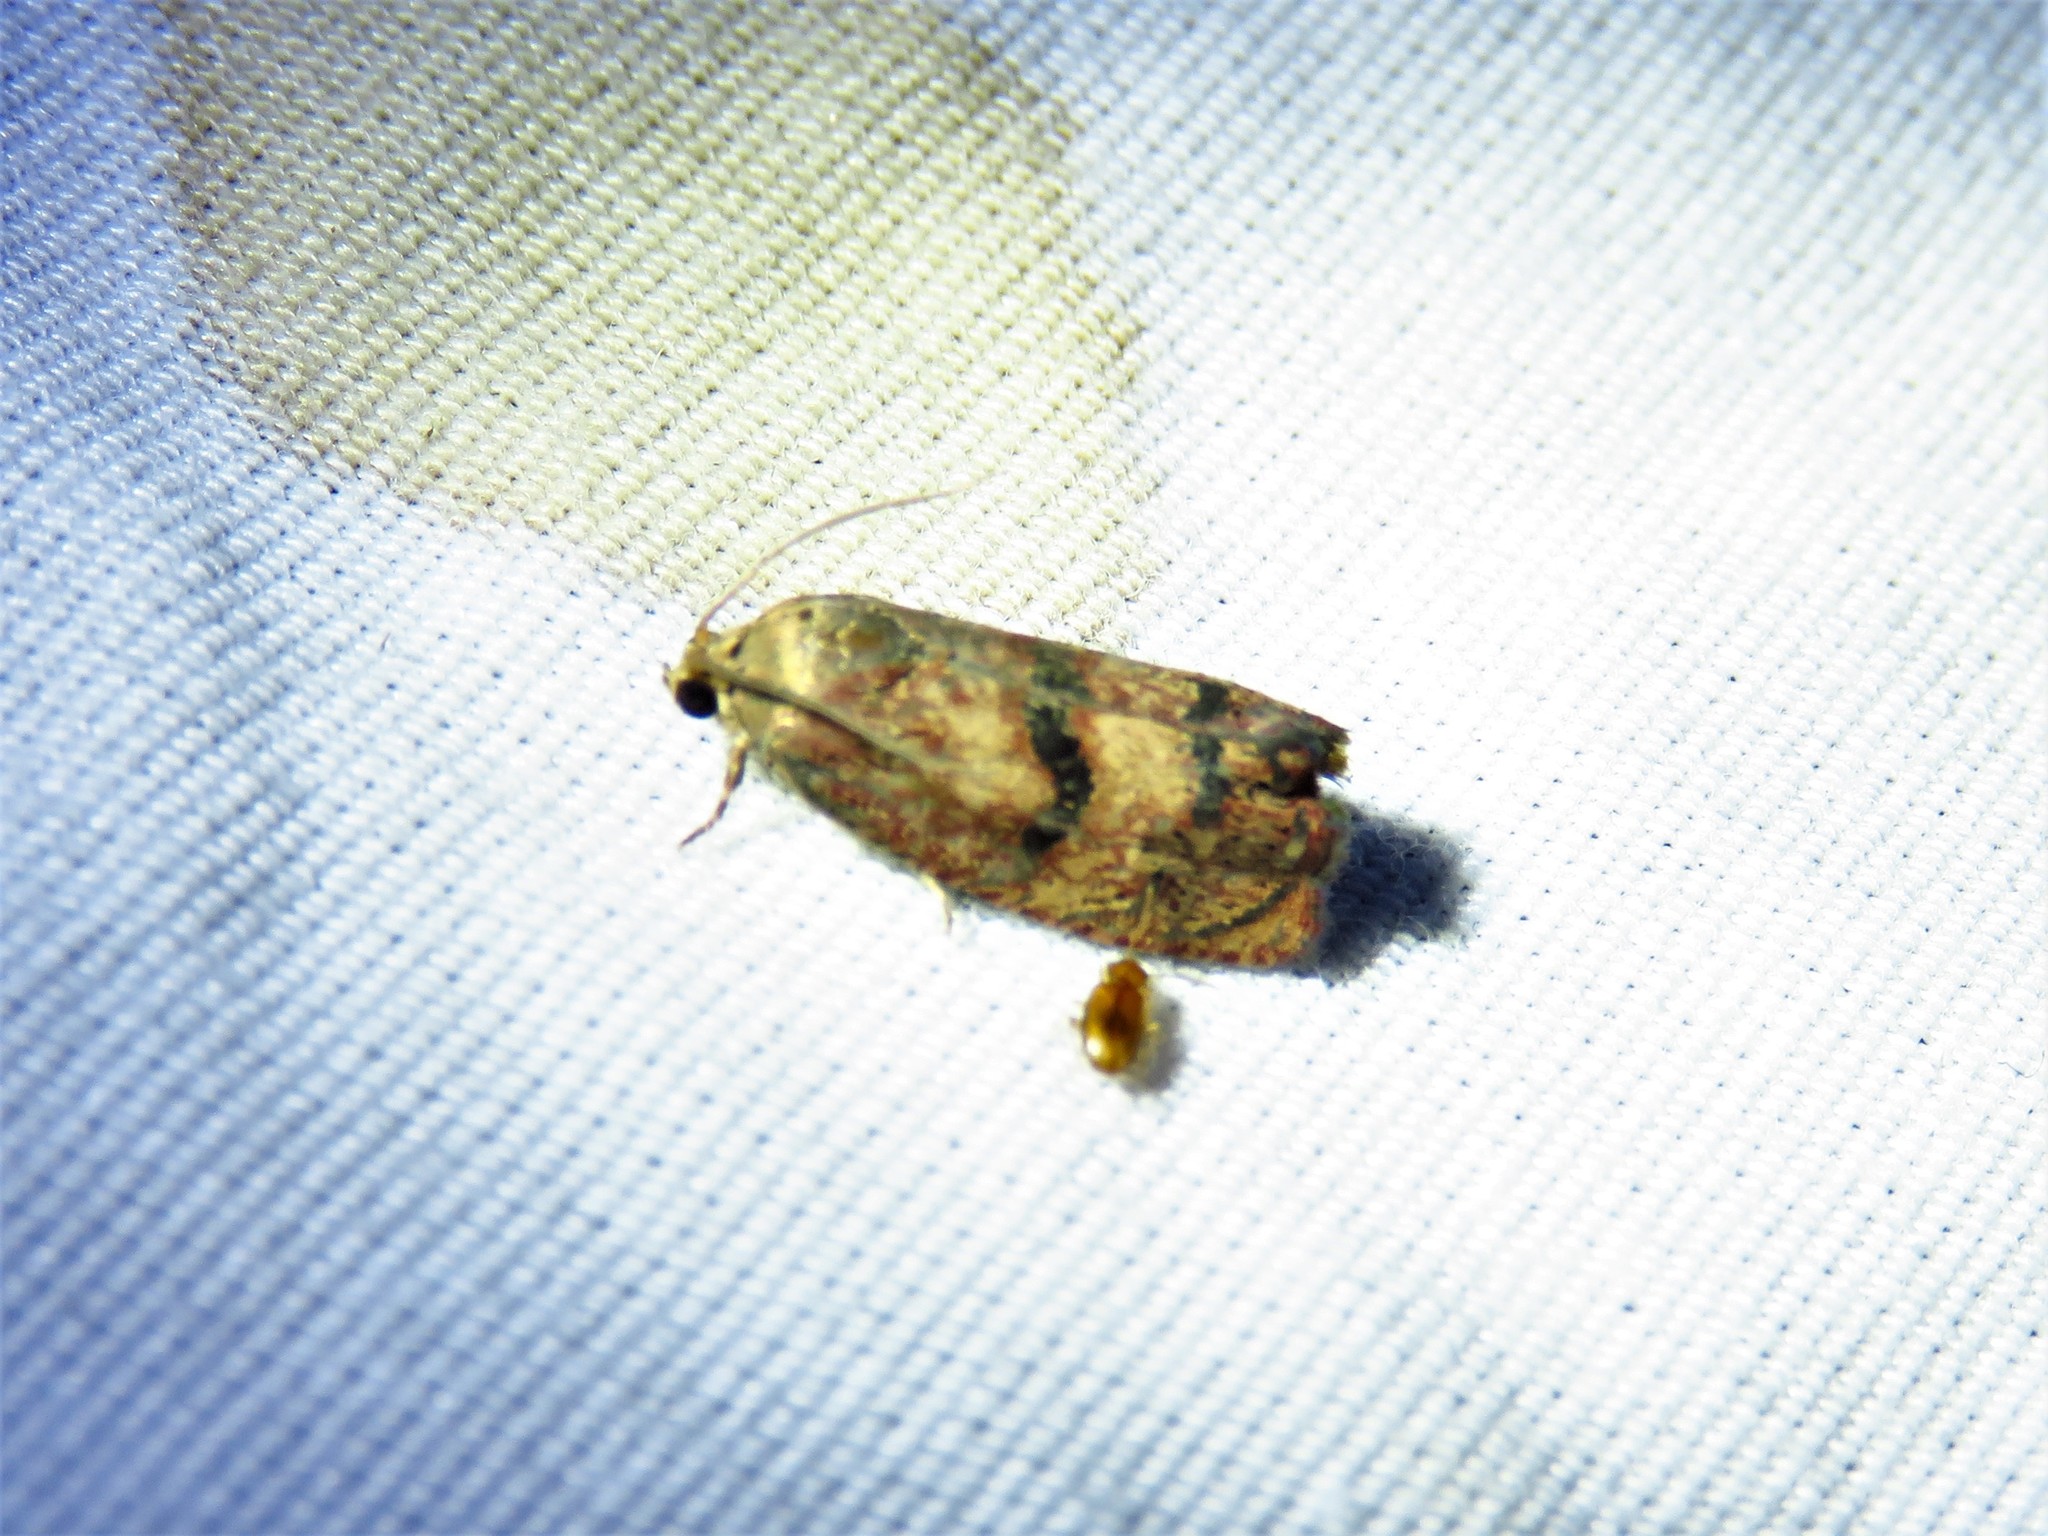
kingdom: Animalia
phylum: Arthropoda
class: Insecta
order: Lepidoptera
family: Tortricidae
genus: Cydia
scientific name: Cydia latiferreana
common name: Filbertworm moth
